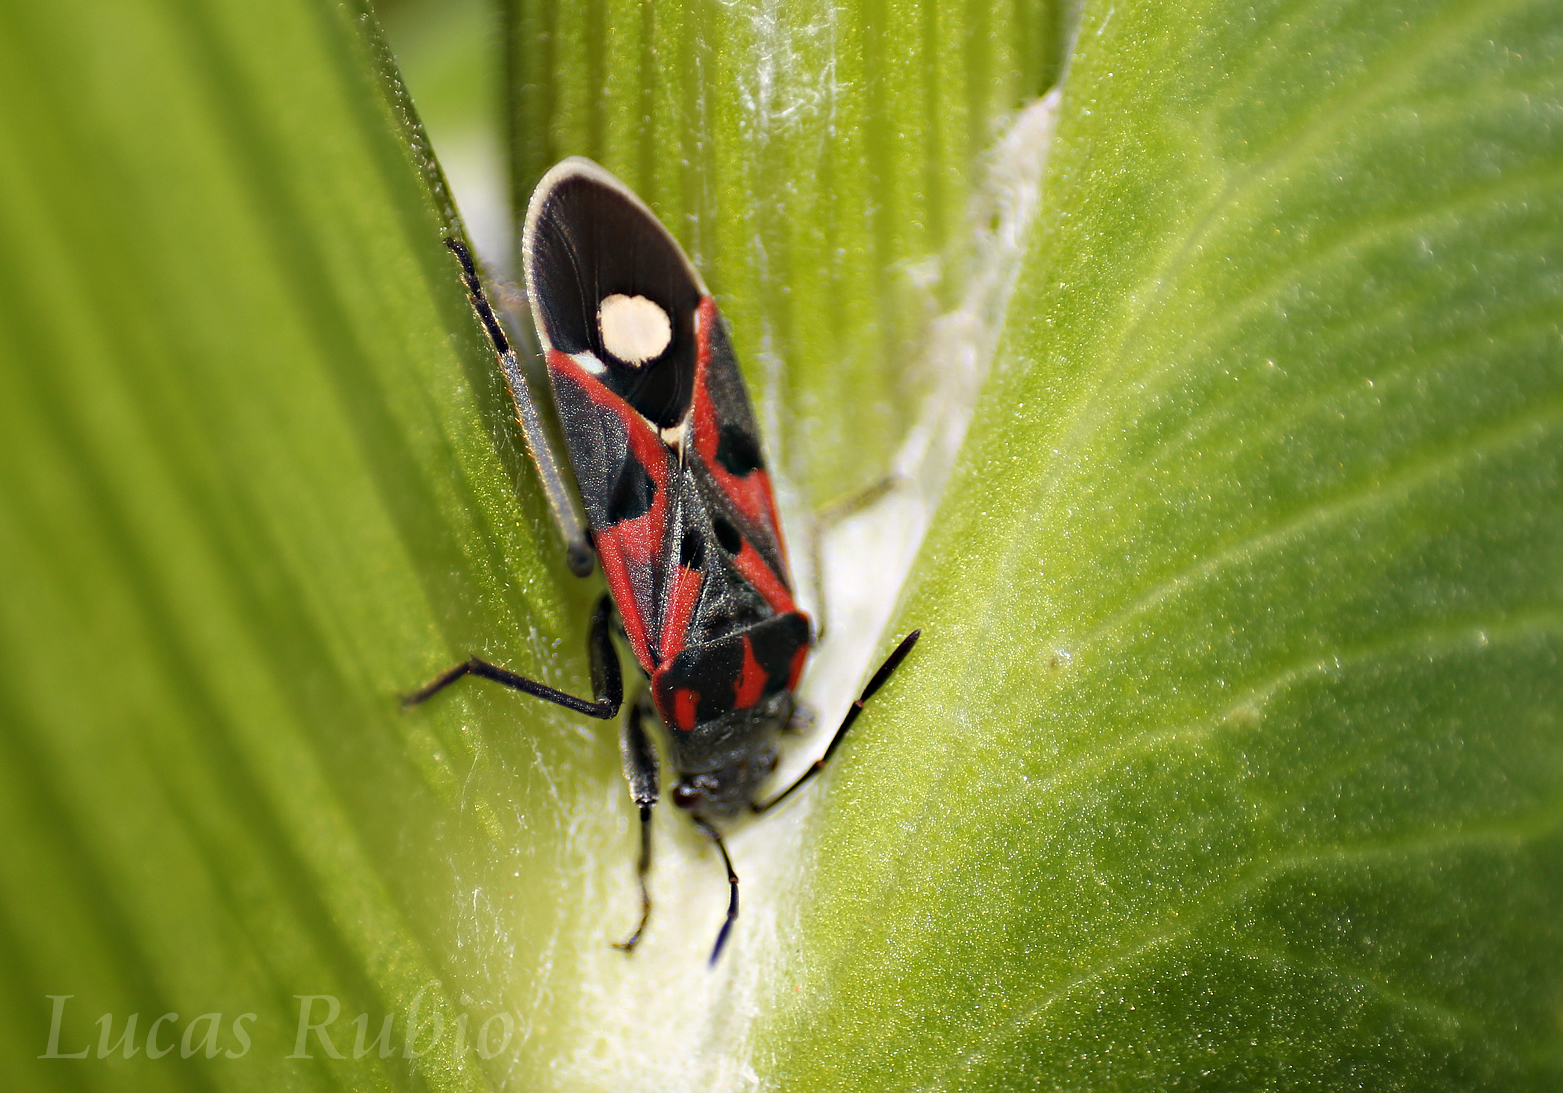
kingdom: Animalia
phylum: Arthropoda
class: Insecta
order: Hemiptera
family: Lygaeidae
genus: Lygaeus
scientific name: Lygaeus alboornatus
